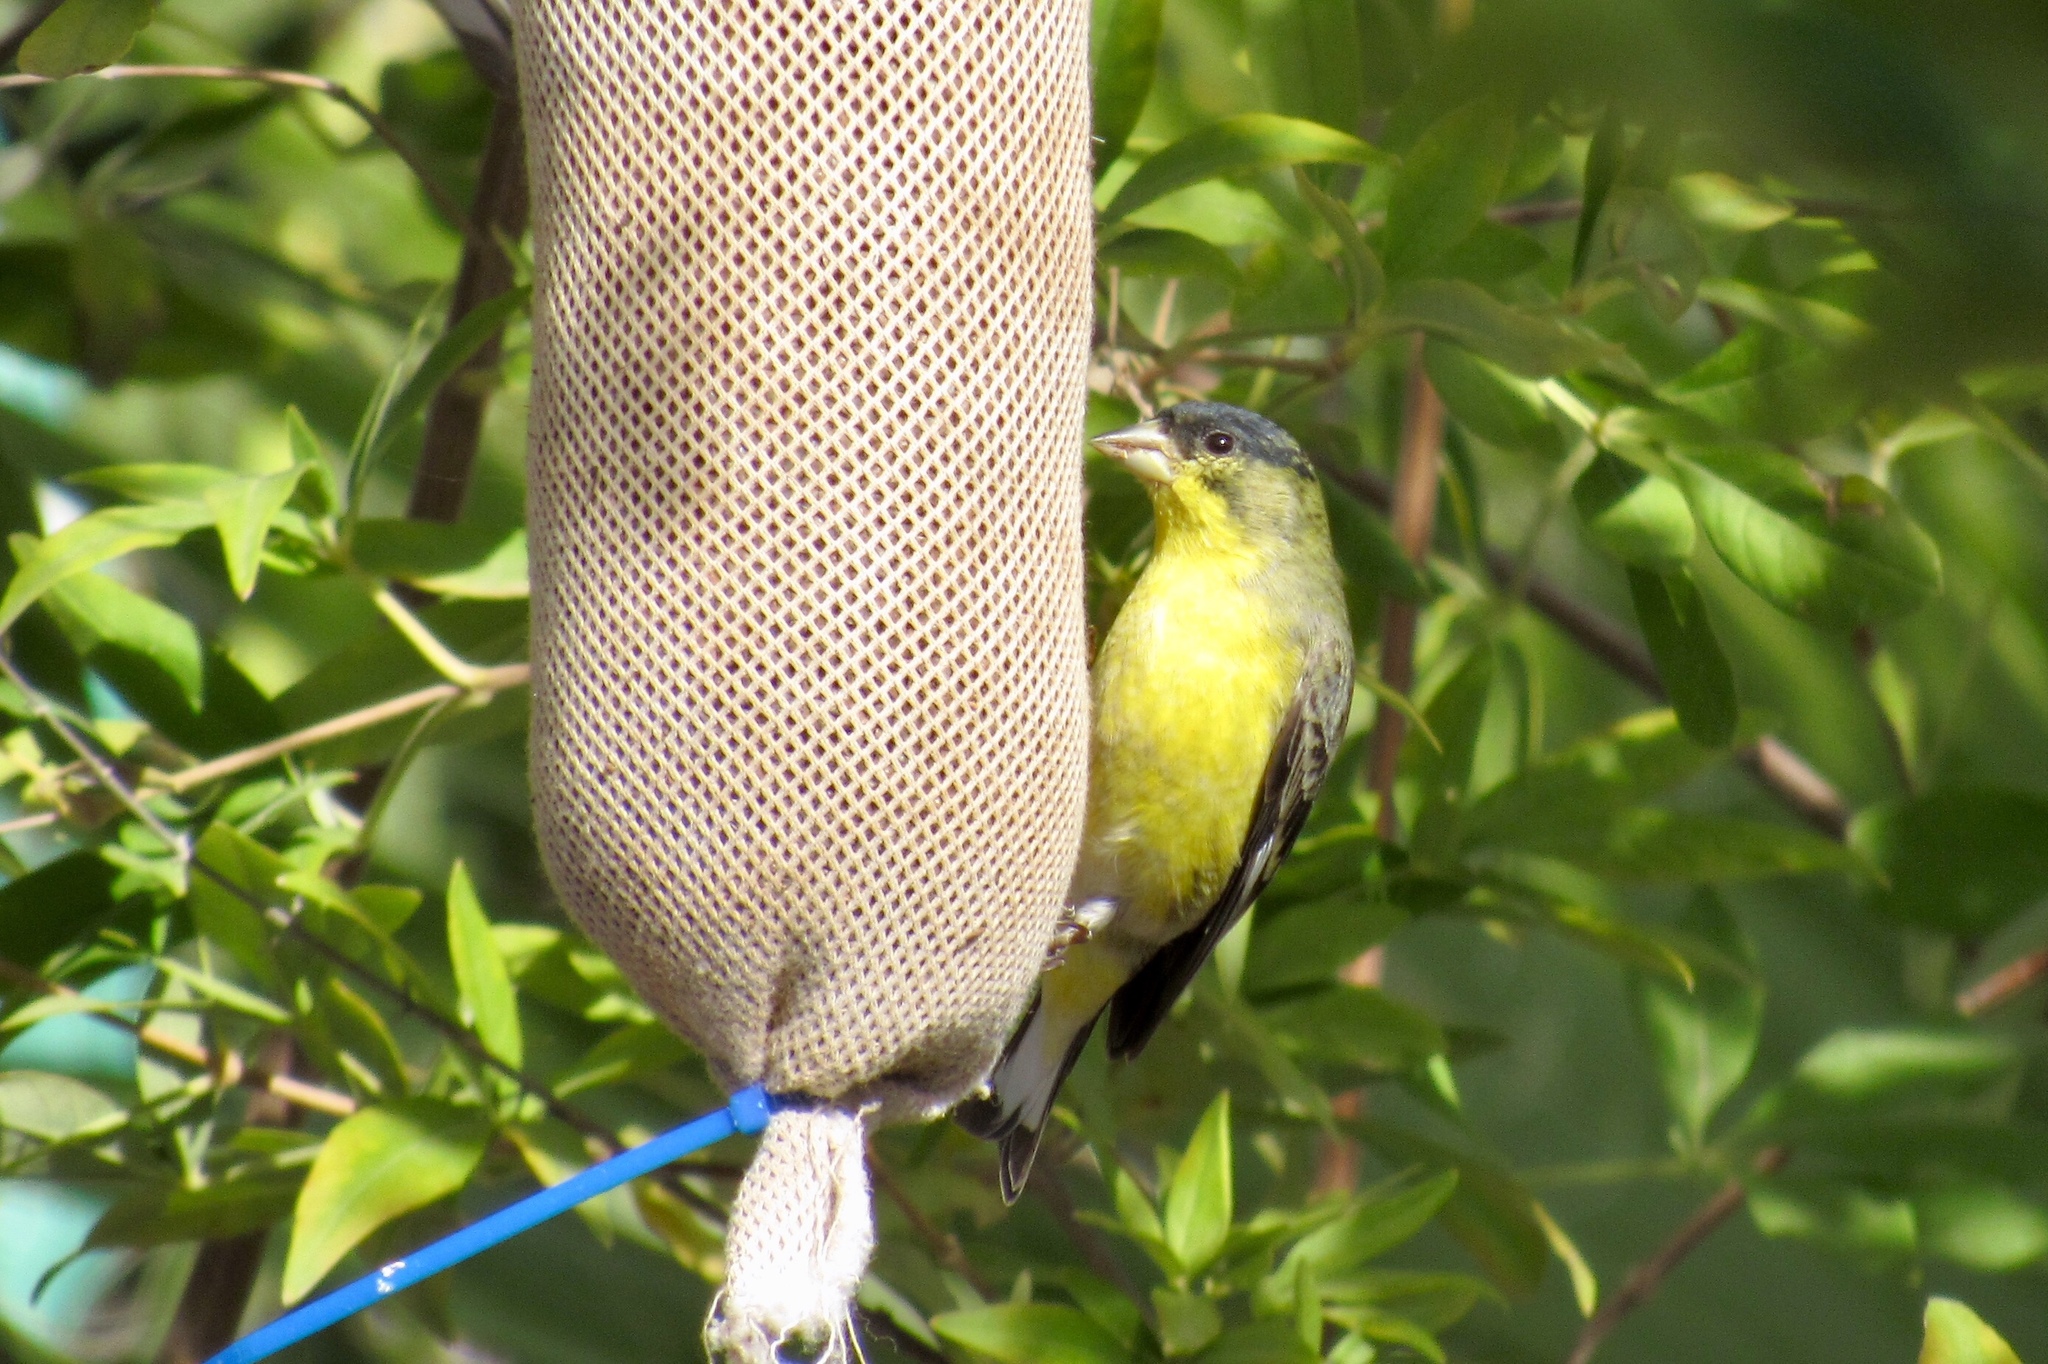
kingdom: Animalia
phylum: Chordata
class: Aves
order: Passeriformes
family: Fringillidae
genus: Spinus
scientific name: Spinus psaltria
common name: Lesser goldfinch
